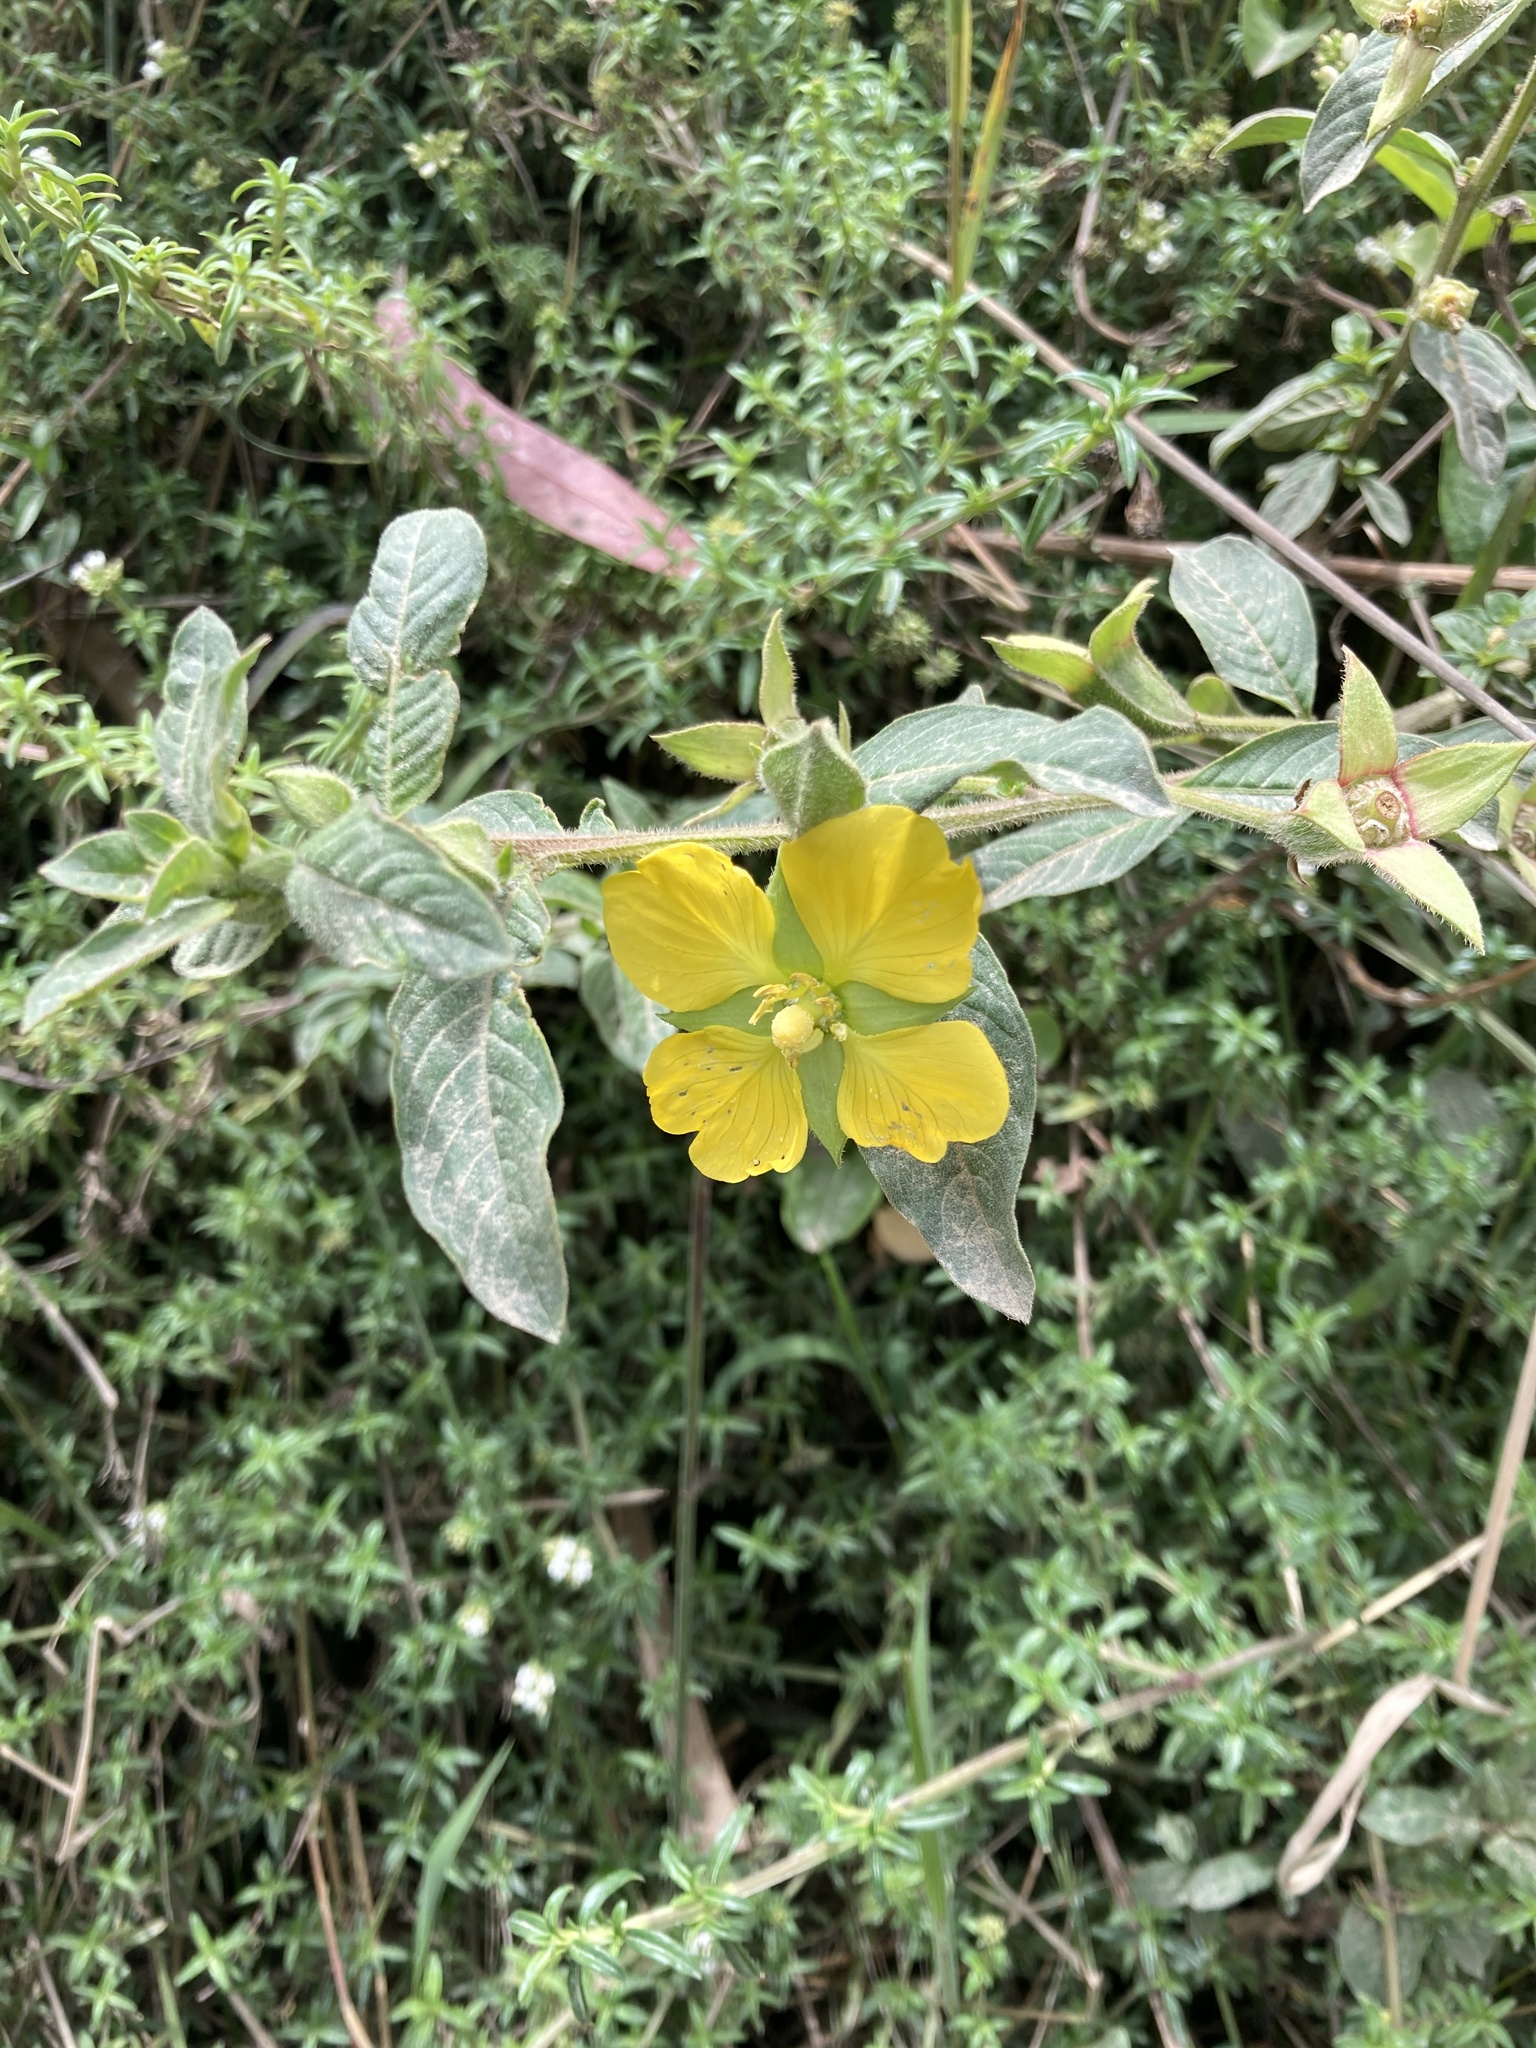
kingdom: Plantae
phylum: Tracheophyta
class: Magnoliopsida
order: Myrtales
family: Onagraceae
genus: Ludwigia
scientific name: Ludwigia peruviana
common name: Peruvian primrose-willow
